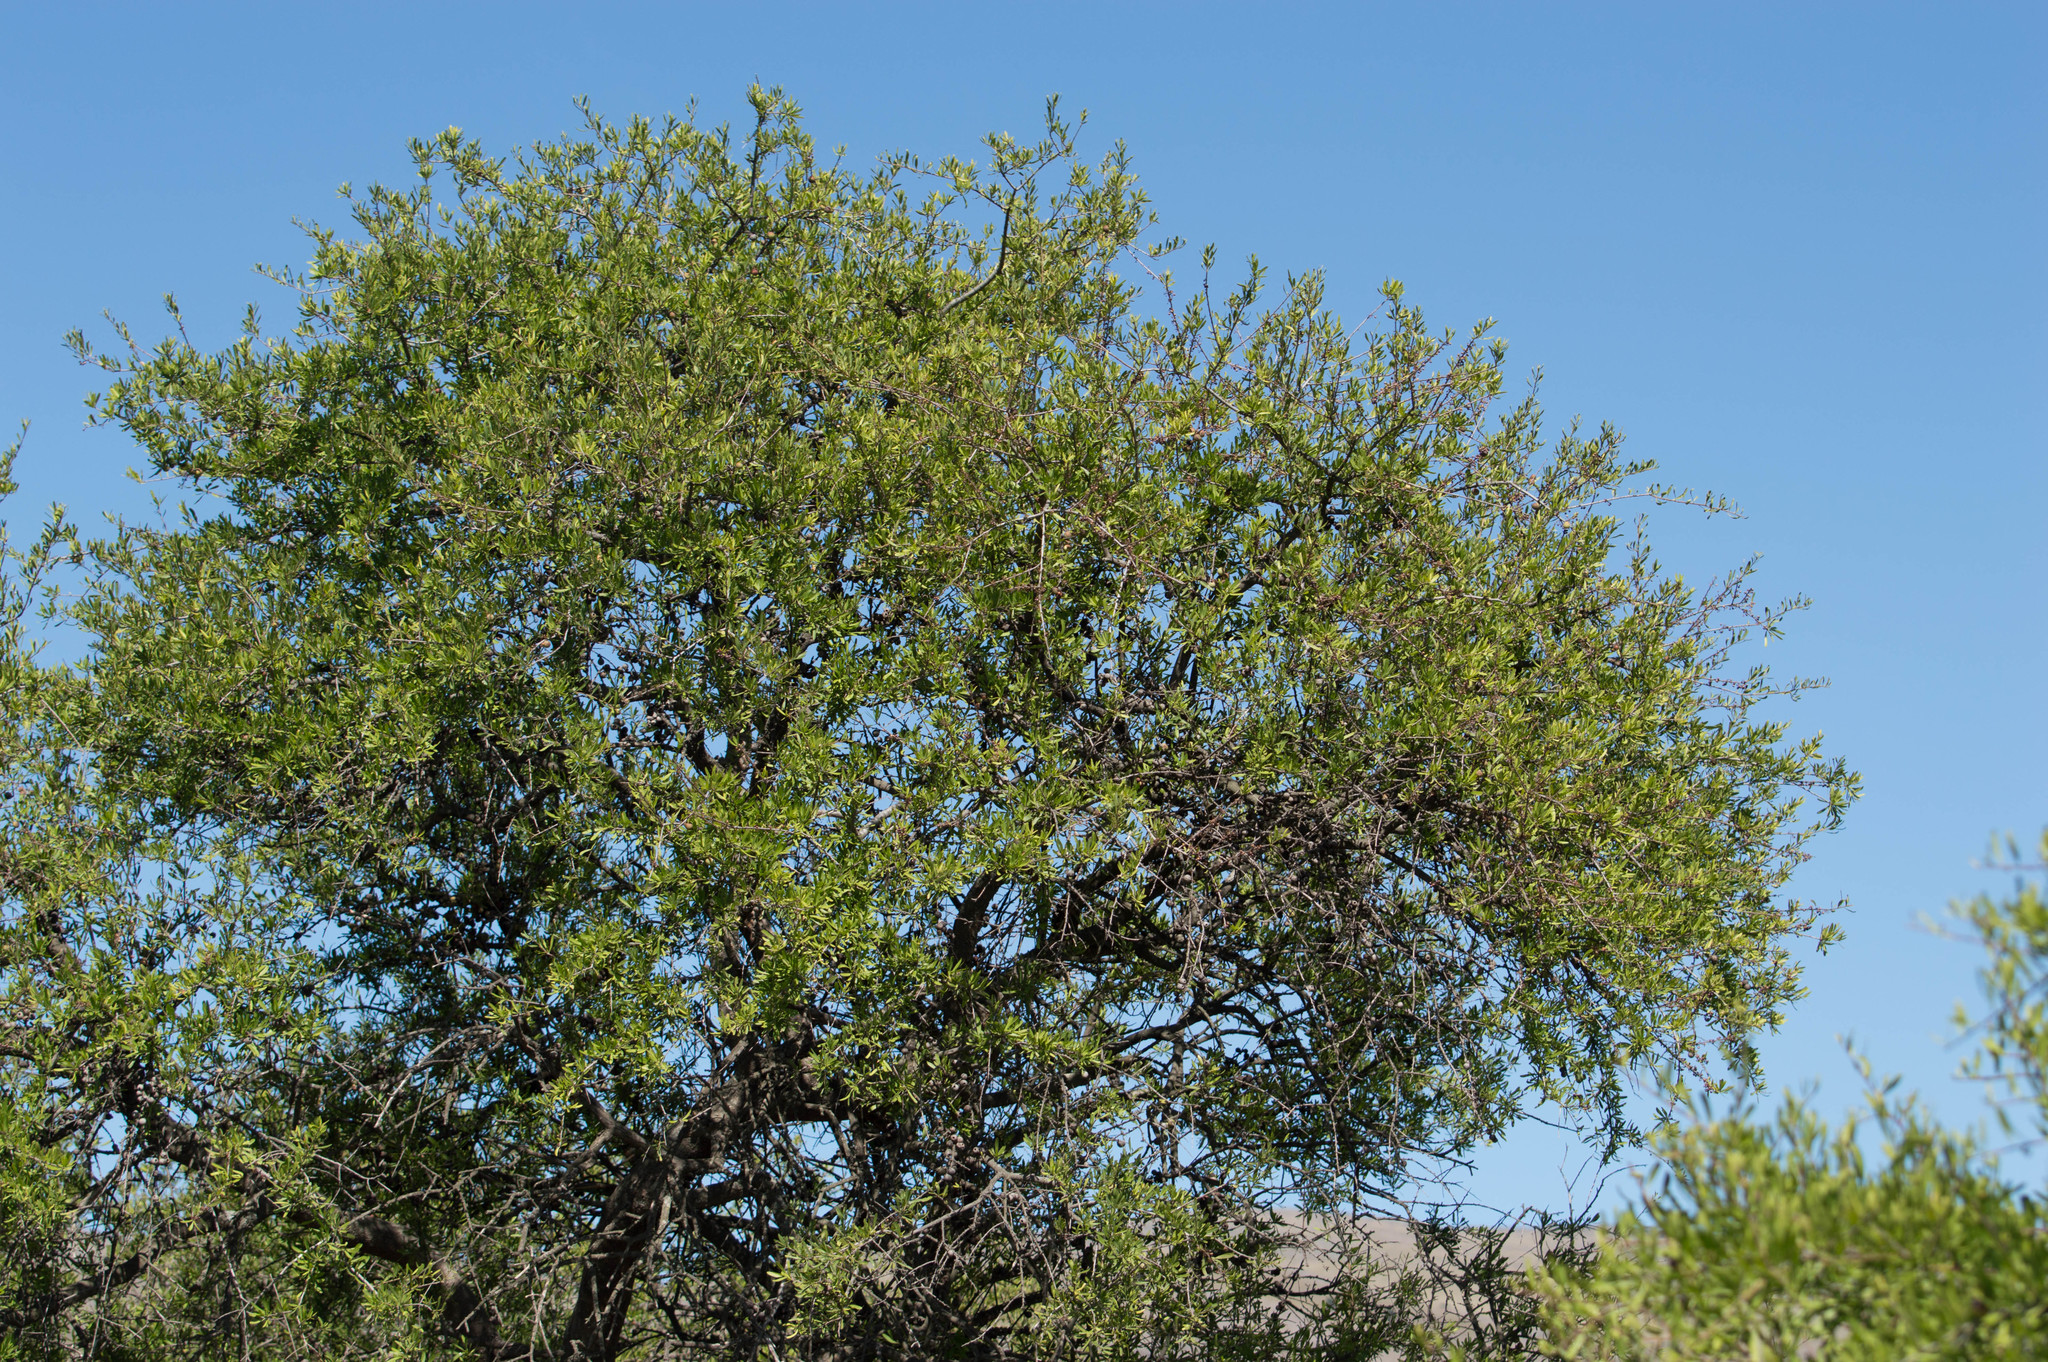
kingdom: Plantae
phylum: Tracheophyta
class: Magnoliopsida
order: Sapindales
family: Anacardiaceae
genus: Schinus
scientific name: Schinus longifolia
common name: Longleaf peppertree
